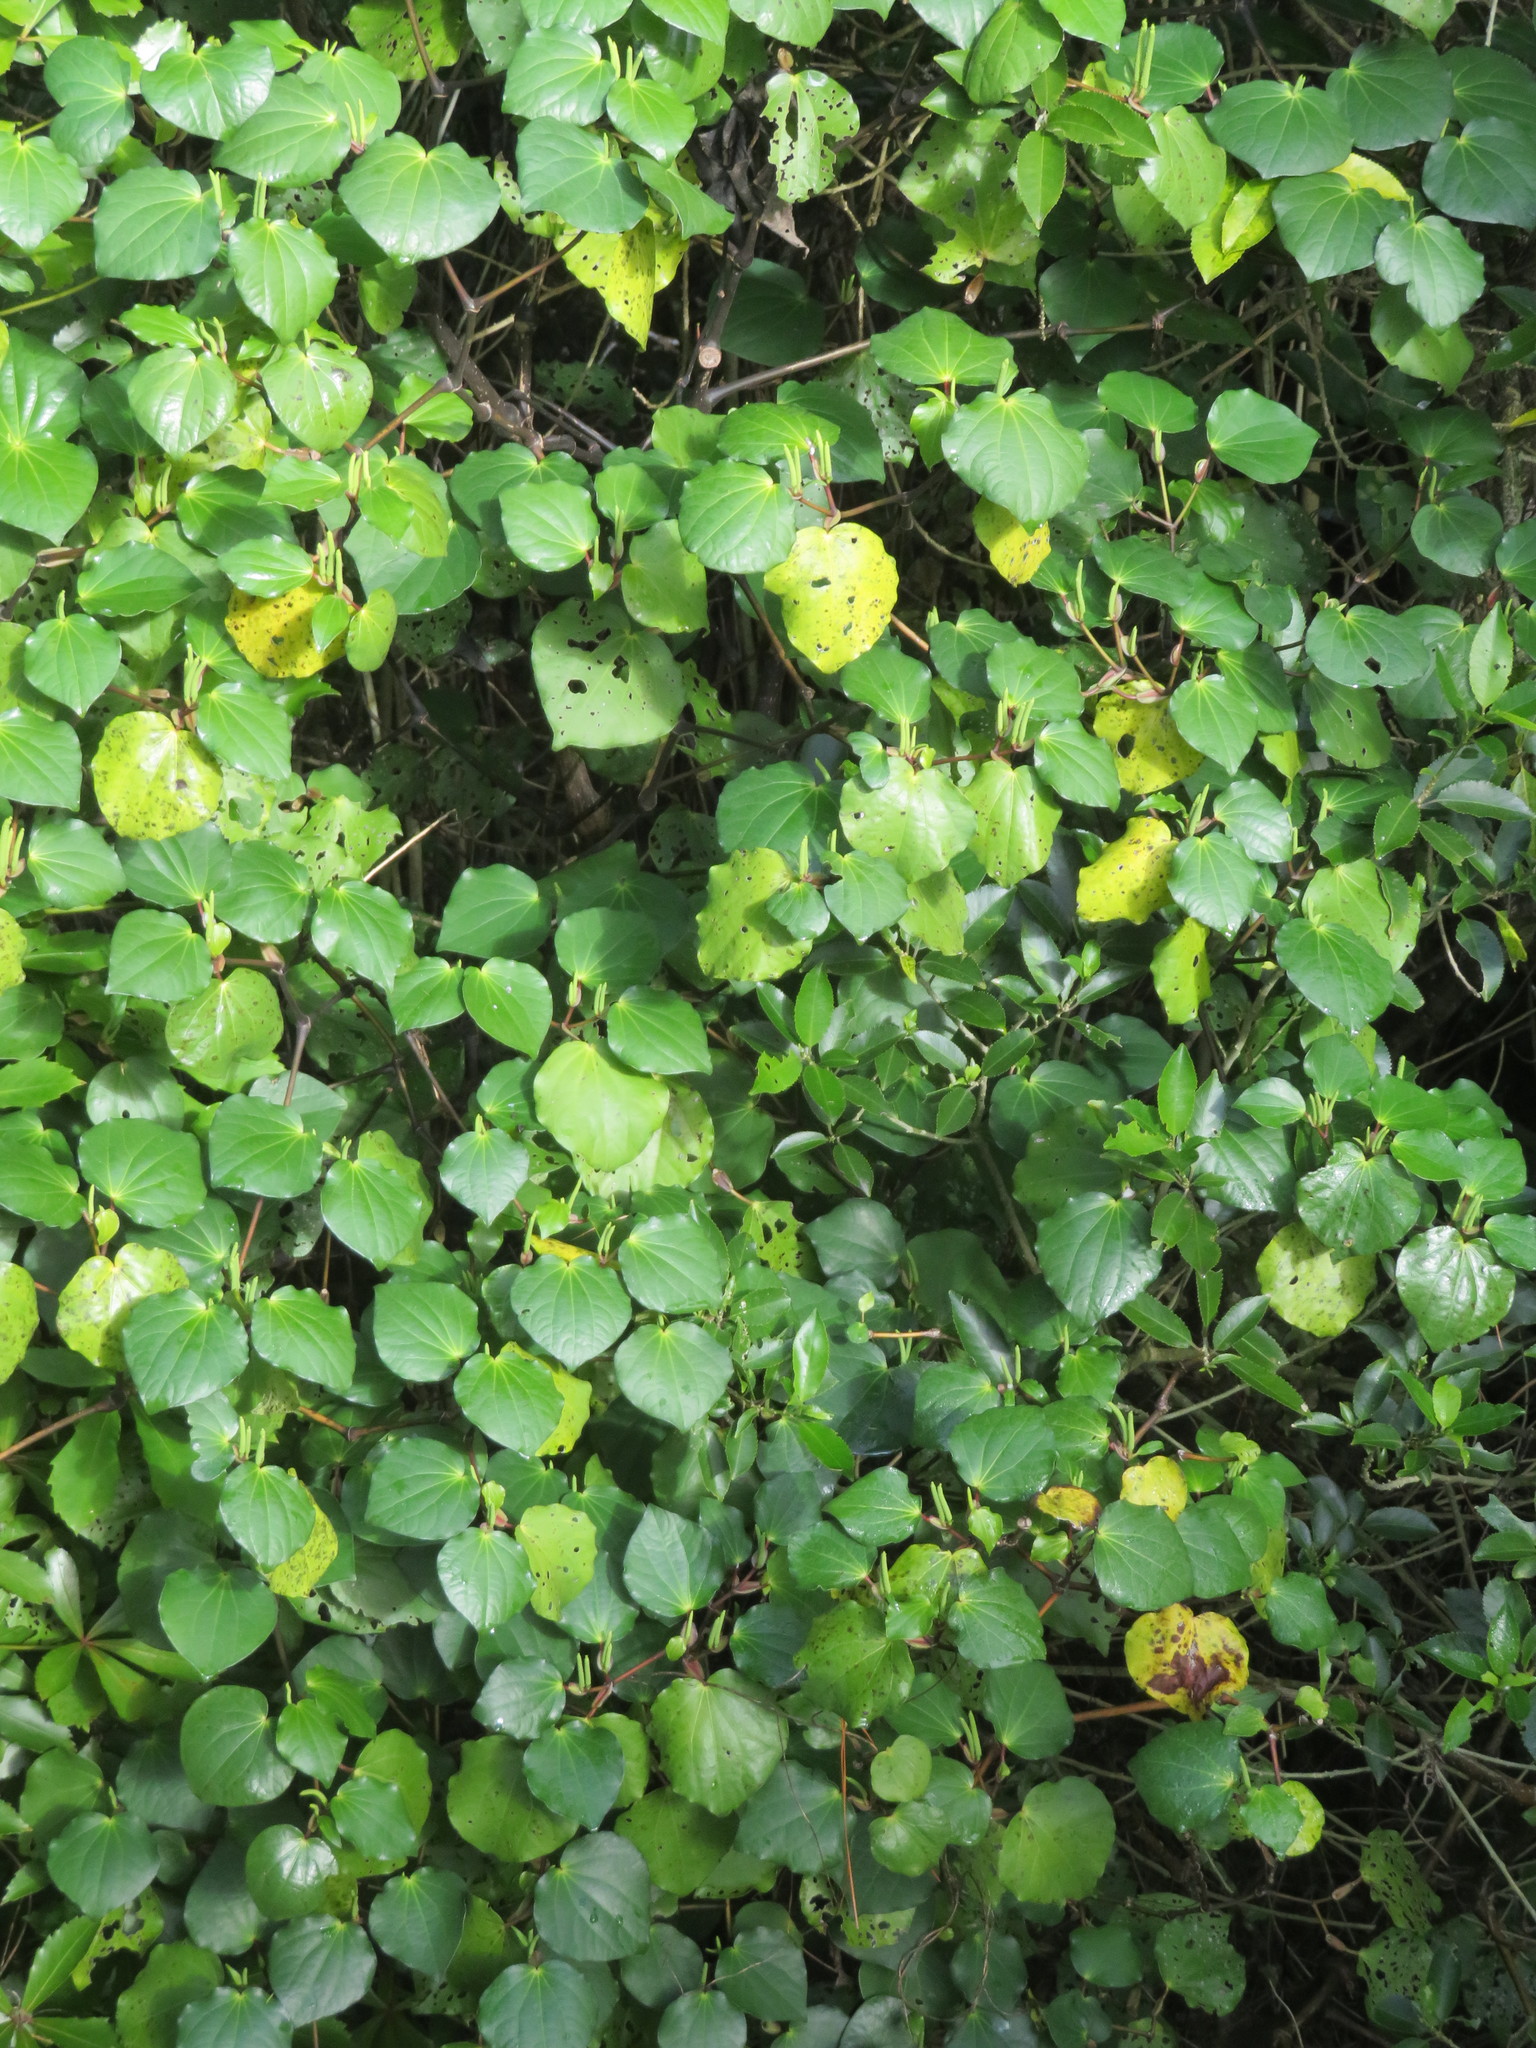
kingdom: Plantae
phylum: Tracheophyta
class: Magnoliopsida
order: Piperales
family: Piperaceae
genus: Macropiper
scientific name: Macropiper excelsum
